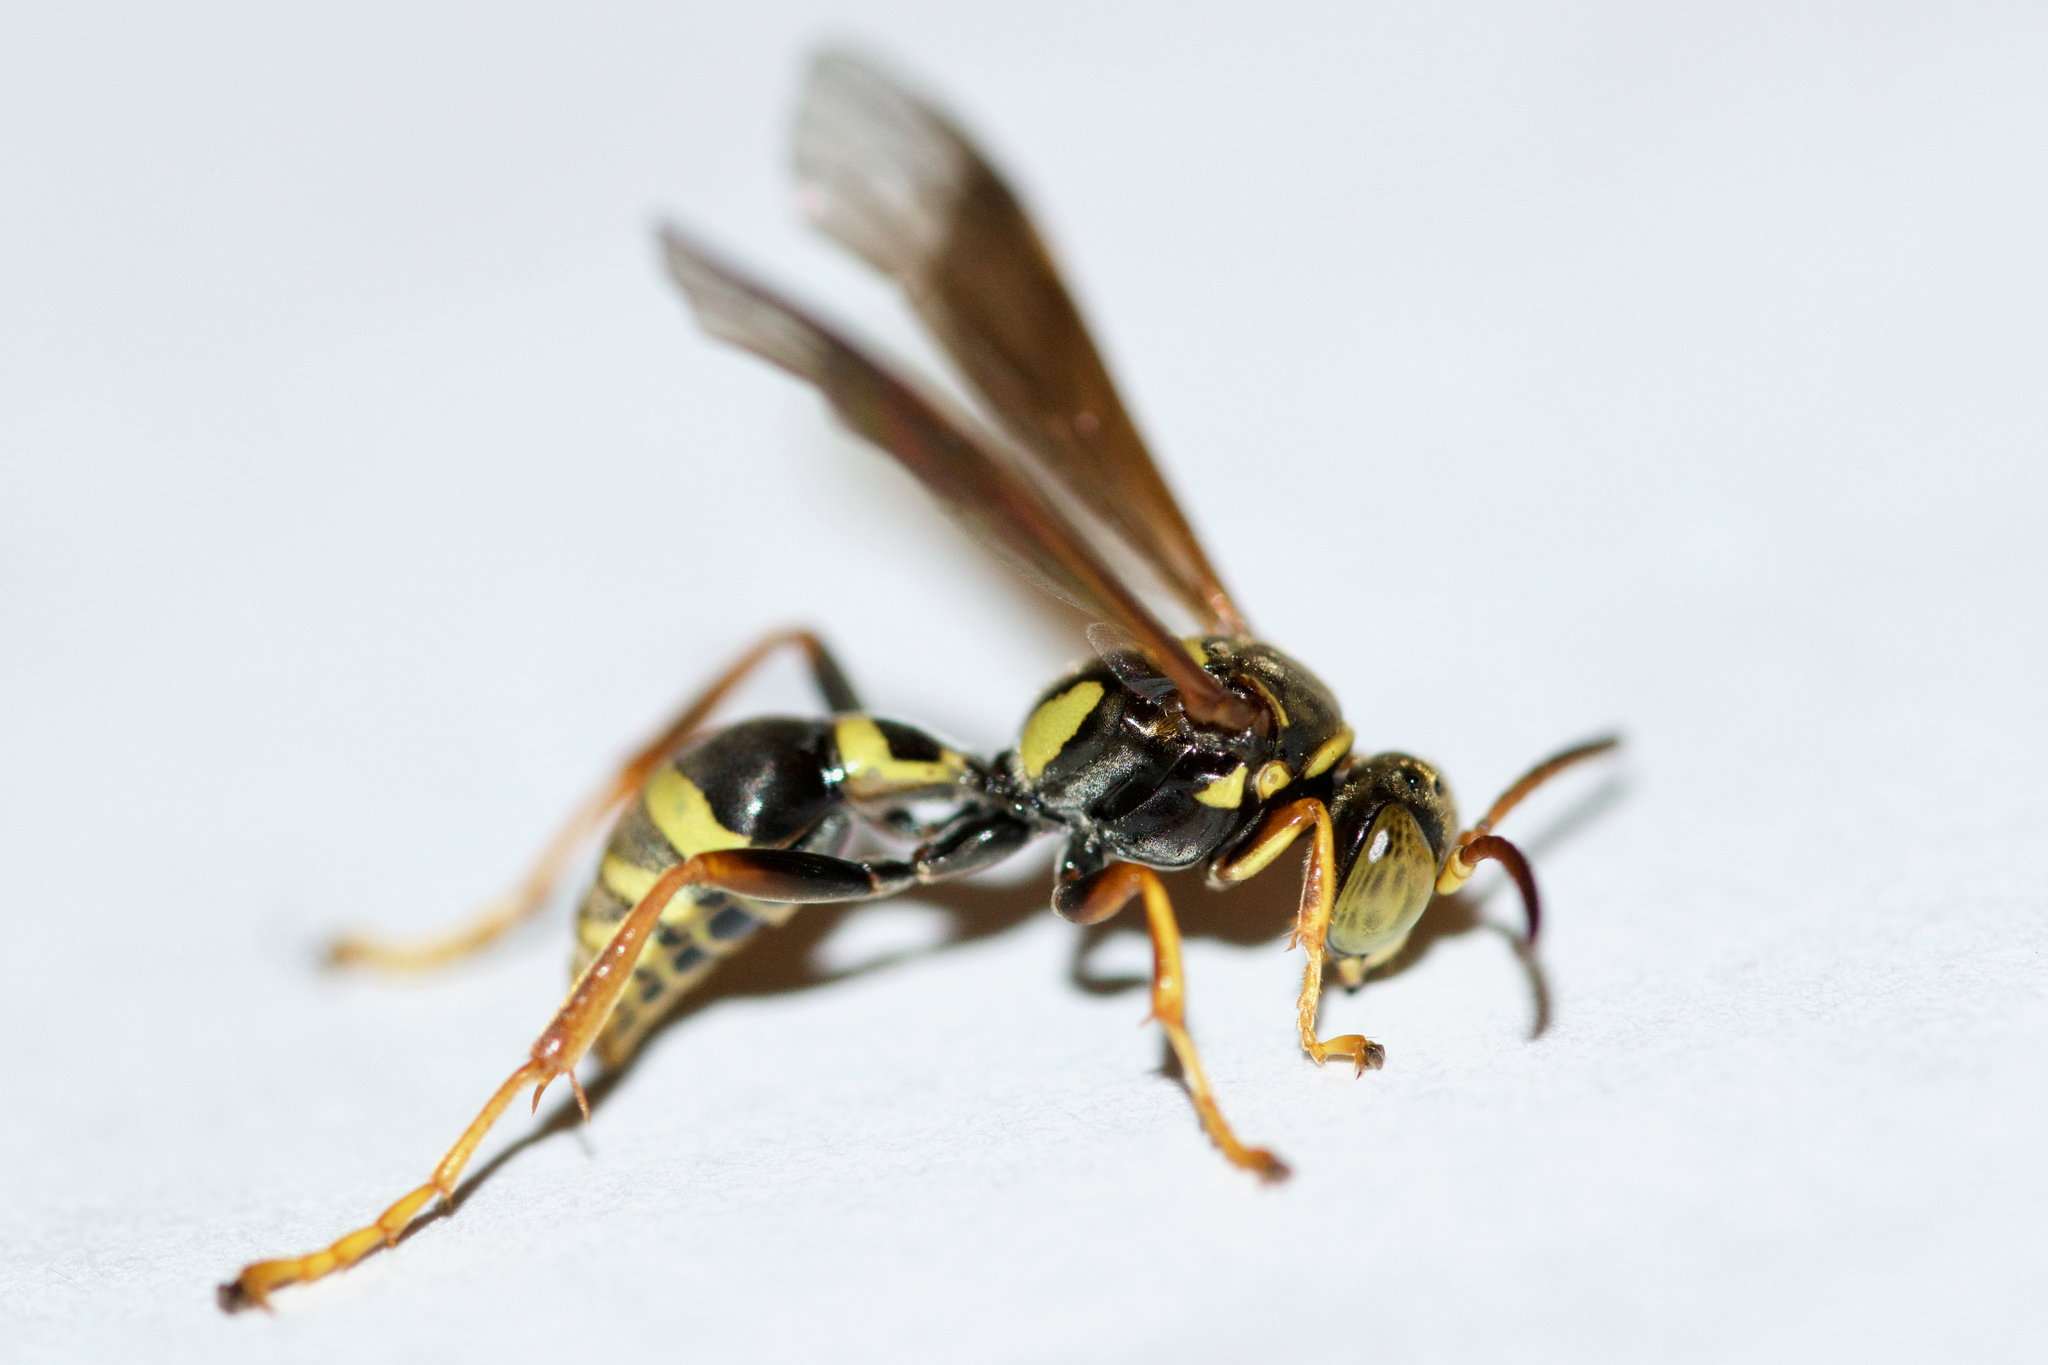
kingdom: Animalia
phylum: Arthropoda
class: Insecta
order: Hymenoptera
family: Crabronidae
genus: Saygorytes
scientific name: Saygorytes phaleratus
